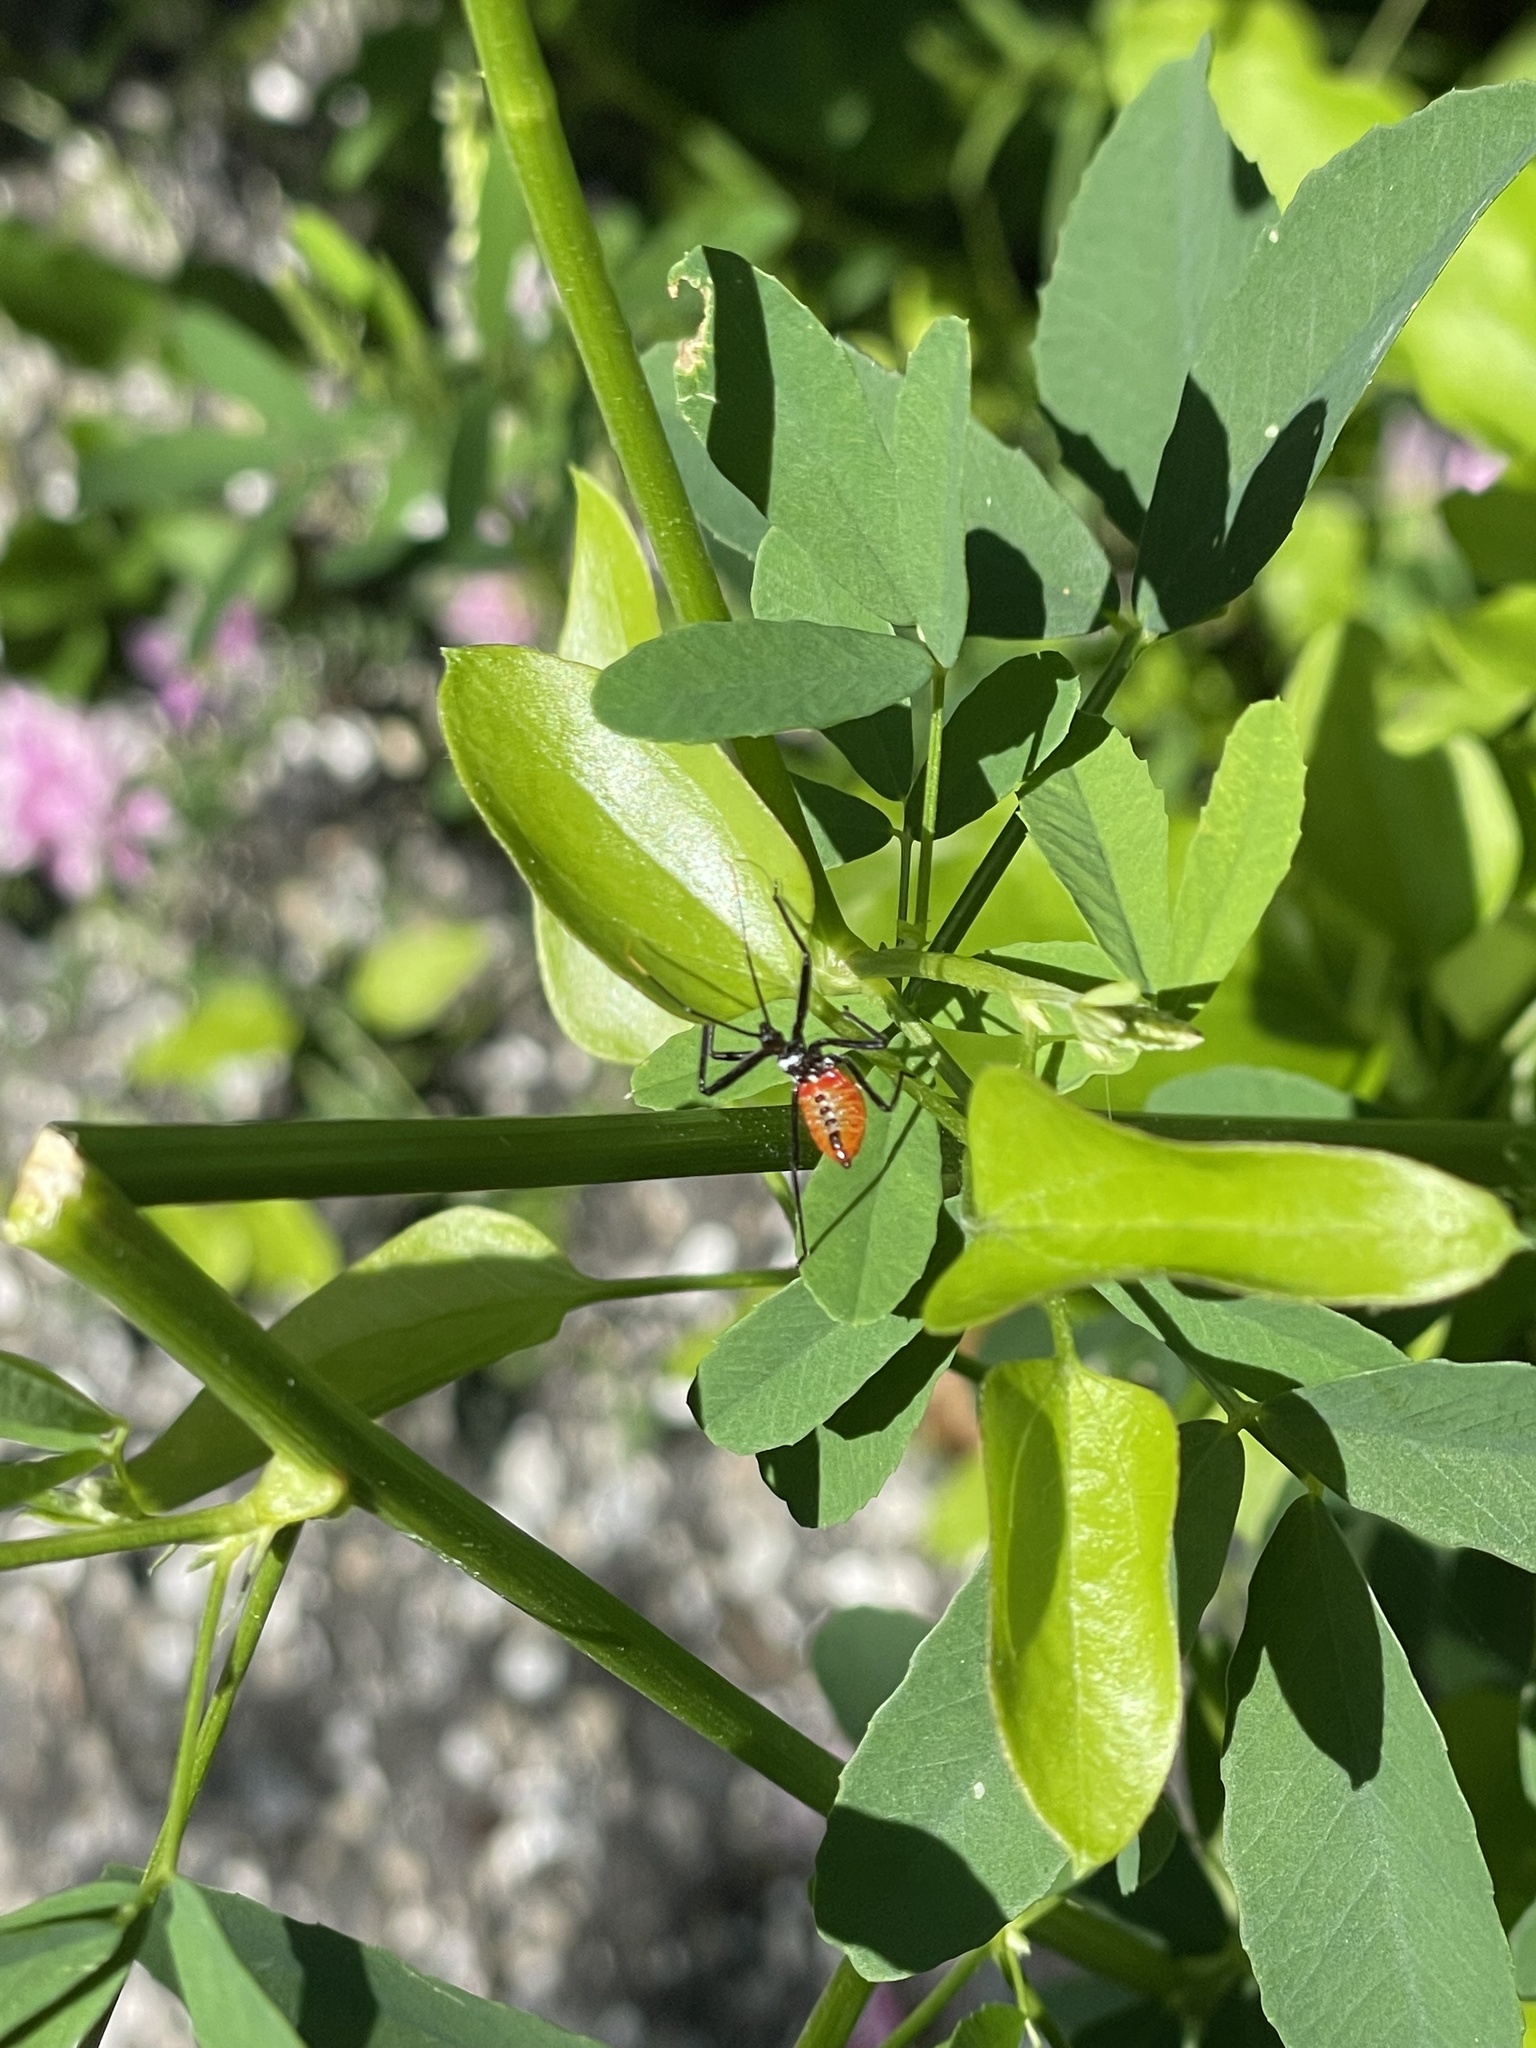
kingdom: Animalia
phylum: Arthropoda
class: Insecta
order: Hemiptera
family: Reduviidae
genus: Arilus
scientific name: Arilus cristatus
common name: North american wheel bug
